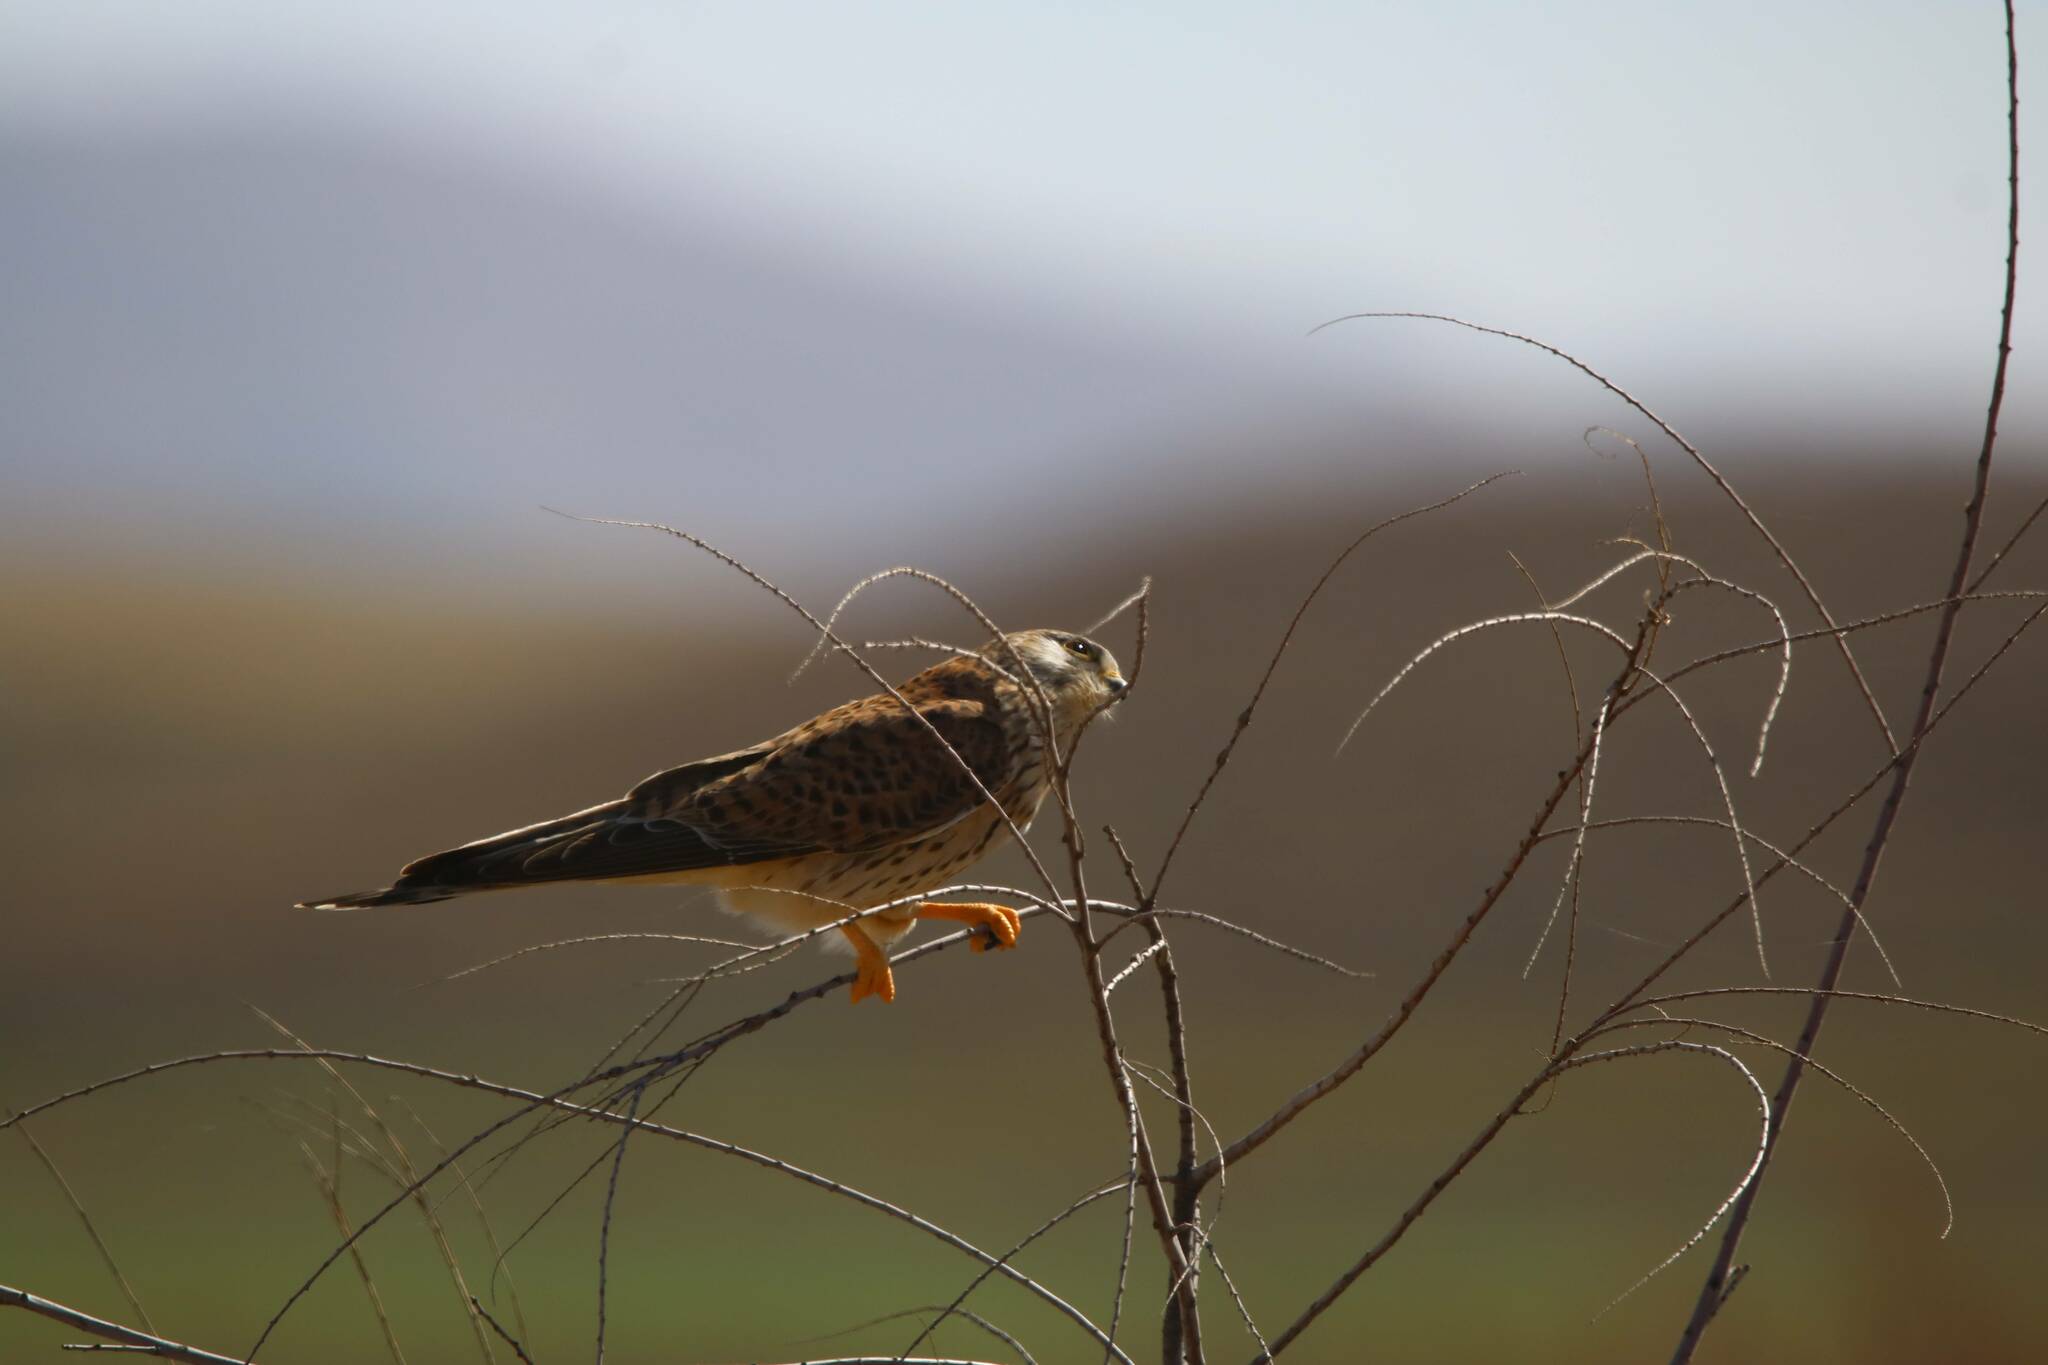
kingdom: Animalia
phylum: Chordata
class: Aves
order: Falconiformes
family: Falconidae
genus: Falco
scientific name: Falco tinnunculus
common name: Common kestrel
